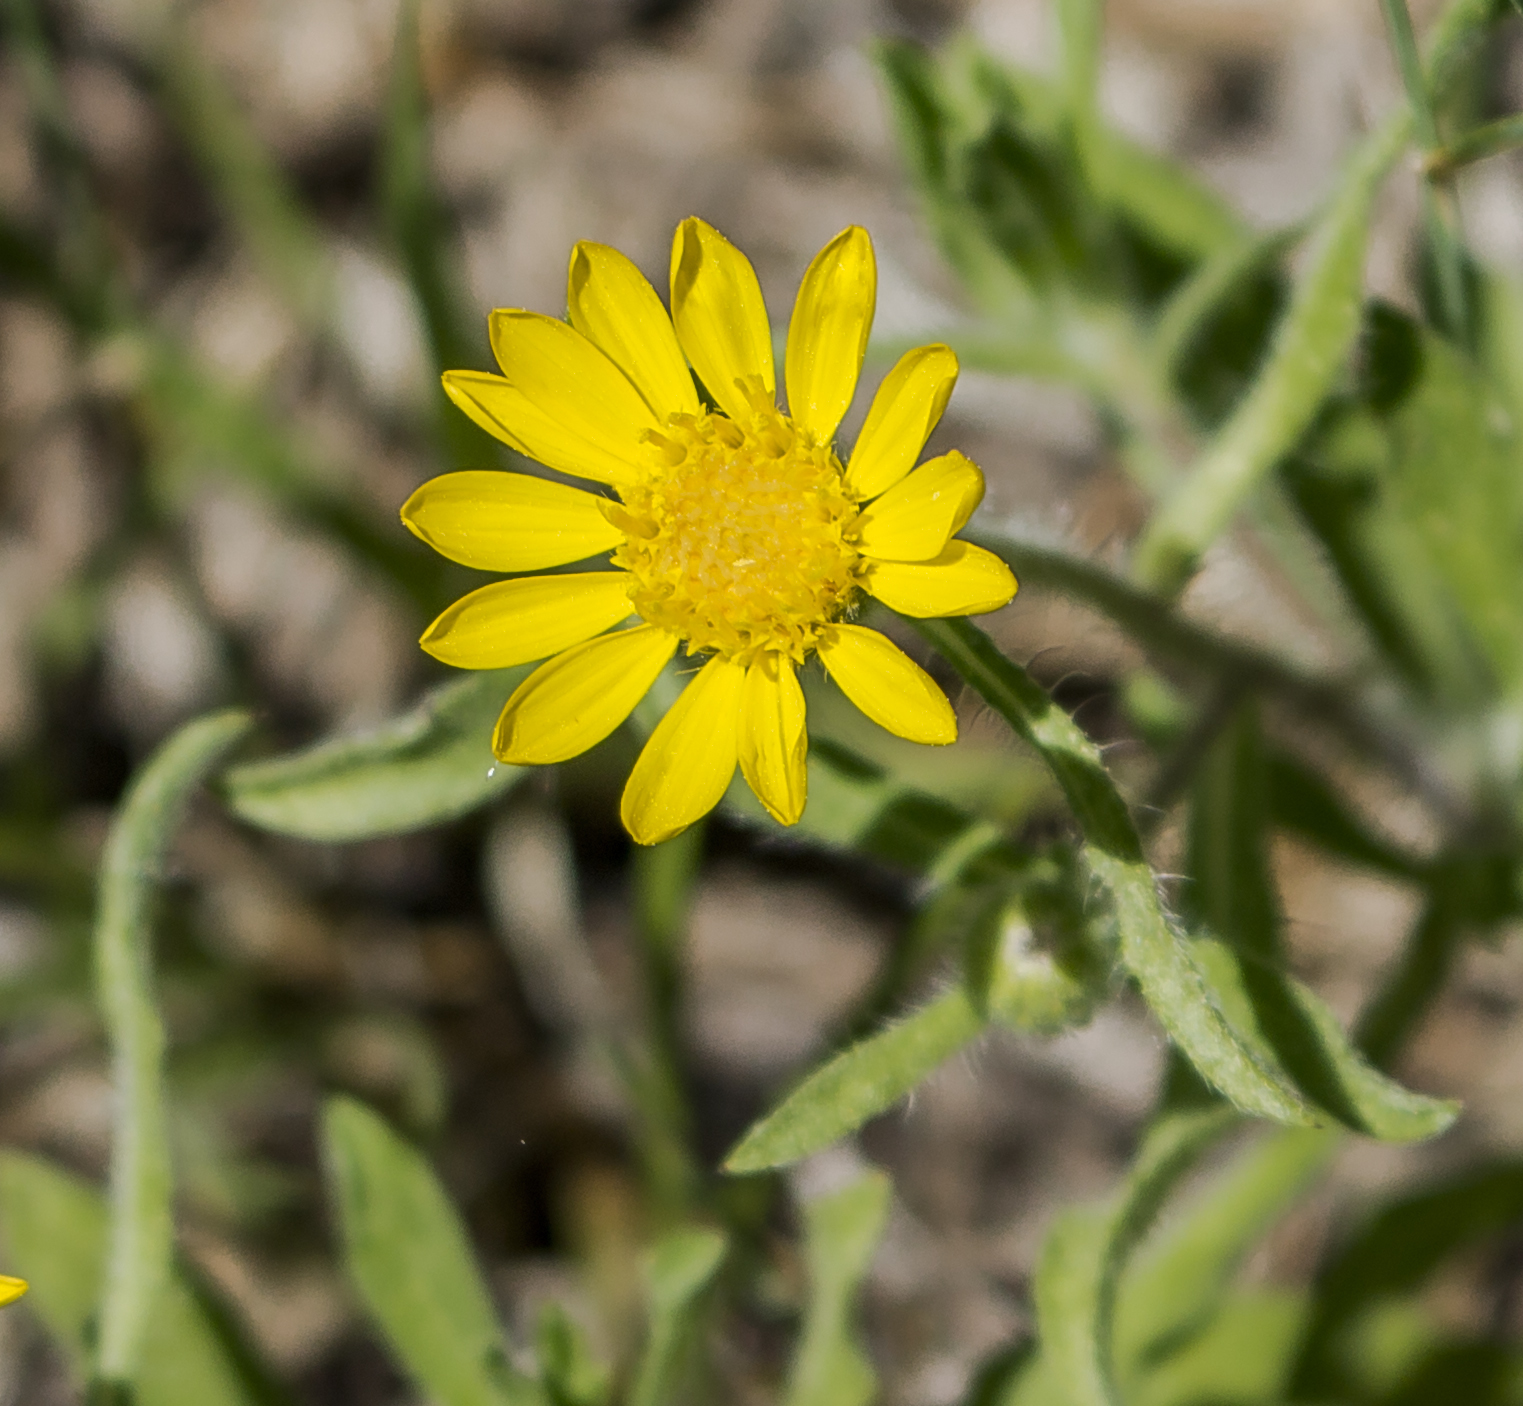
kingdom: Plantae
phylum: Tracheophyta
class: Magnoliopsida
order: Asterales
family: Asteraceae
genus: Heterotheca
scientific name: Heterotheca wisconsinensis
